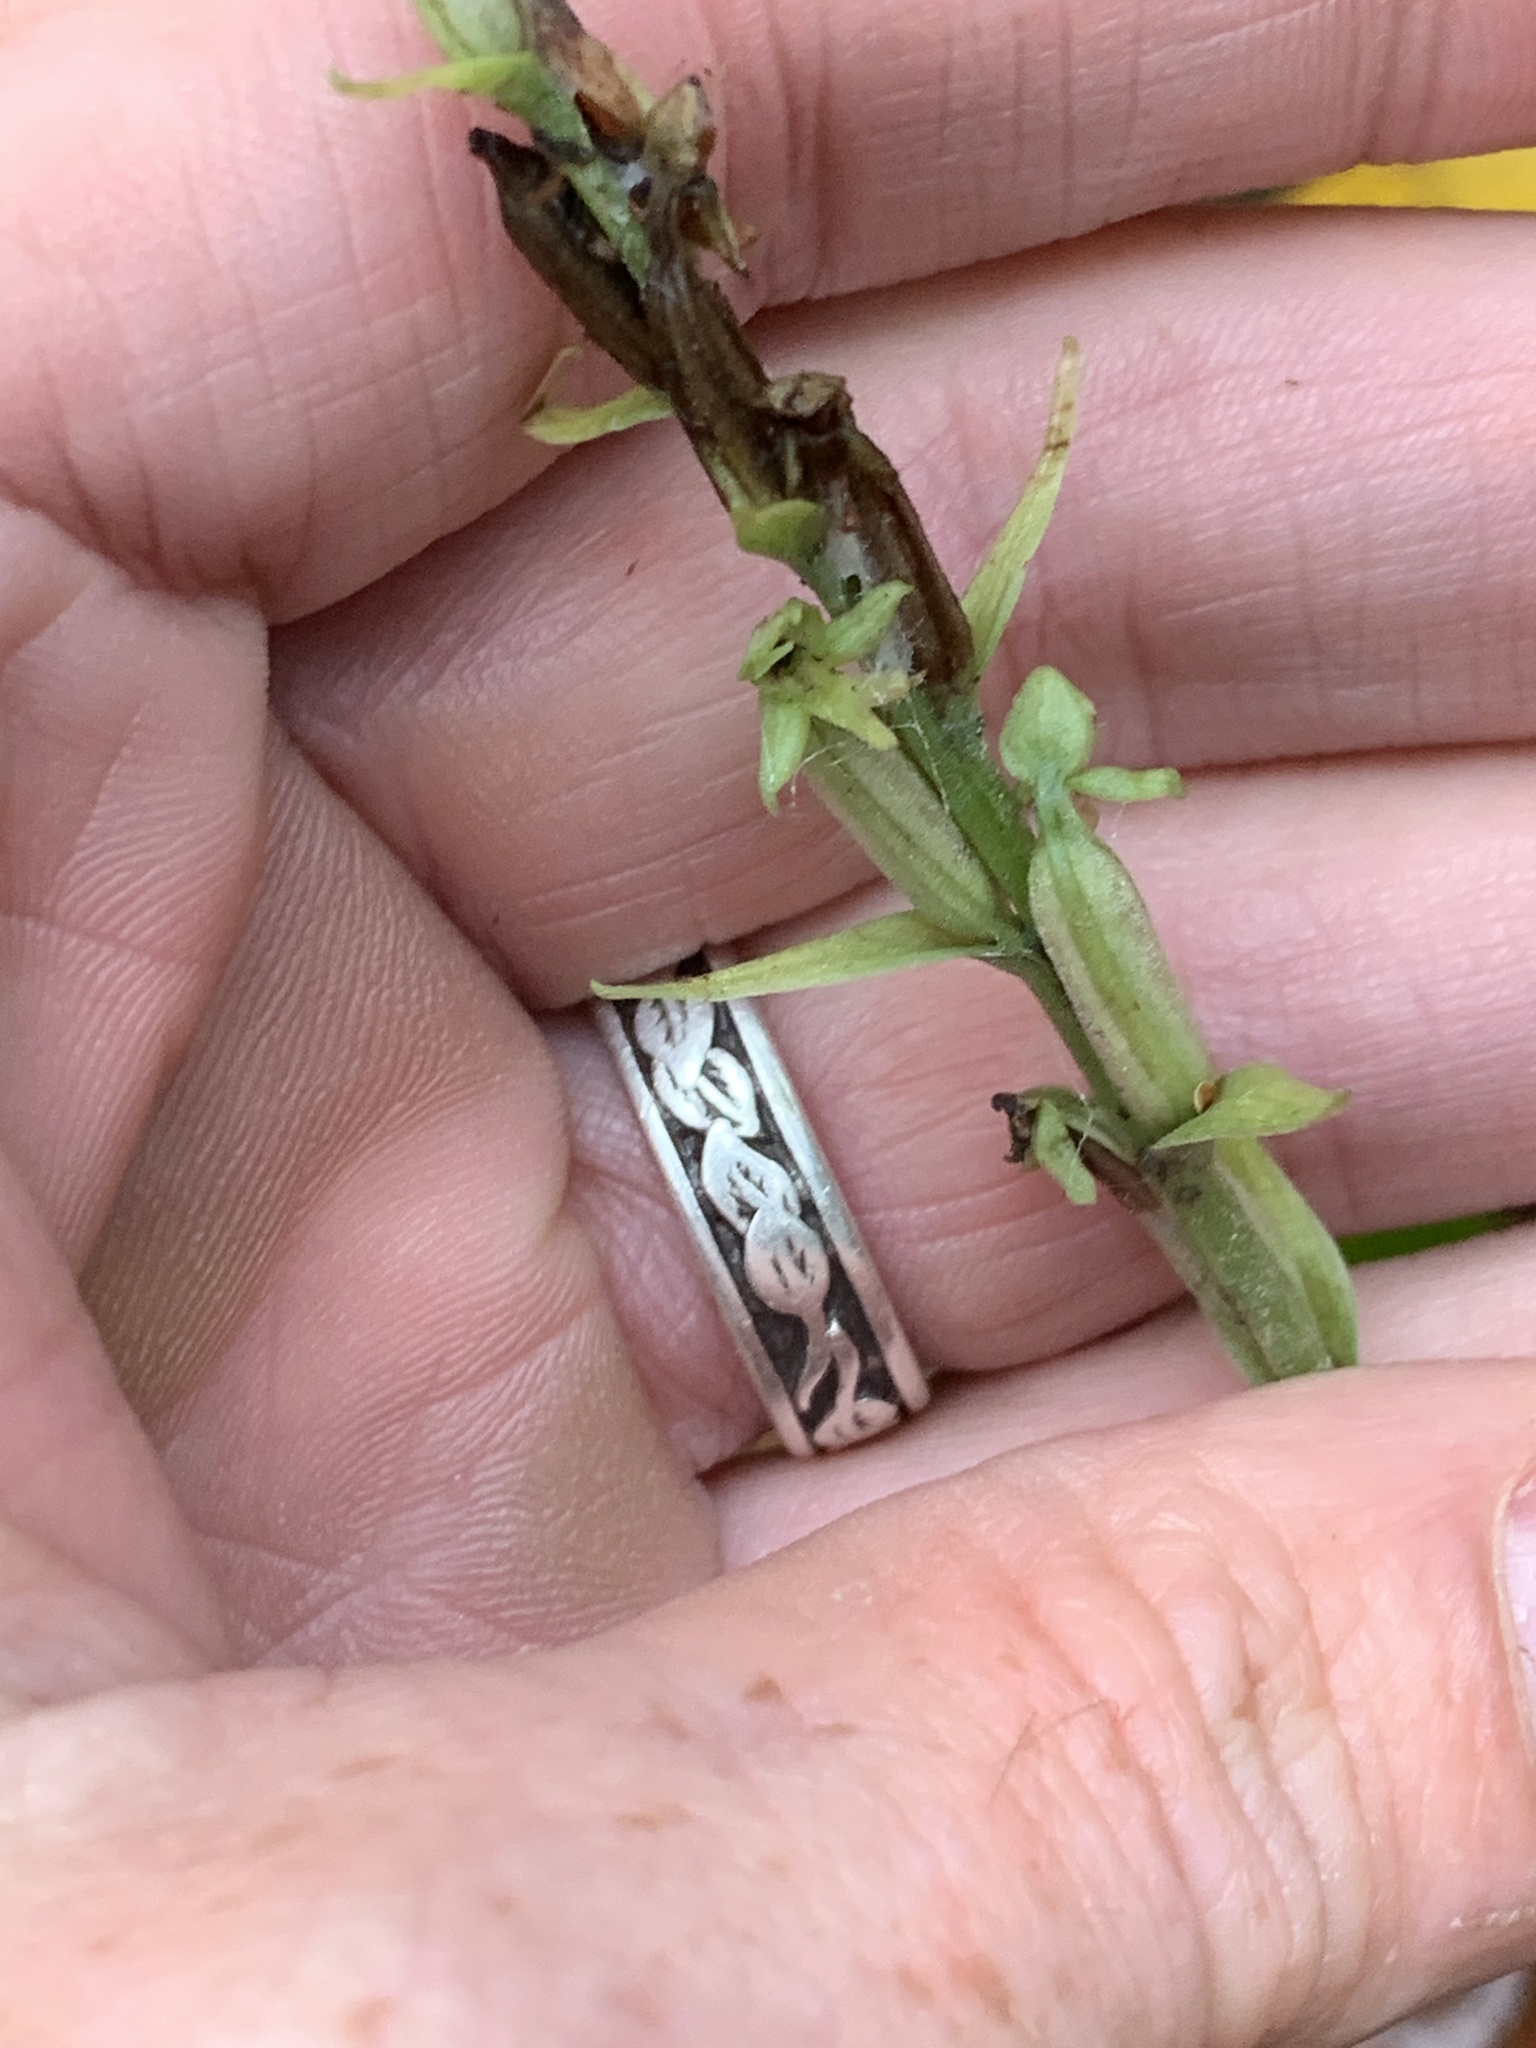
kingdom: Plantae
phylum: Tracheophyta
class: Liliopsida
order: Asparagales
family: Orchidaceae
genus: Platanthera
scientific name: Platanthera aquilonis
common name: Northern green orchid
